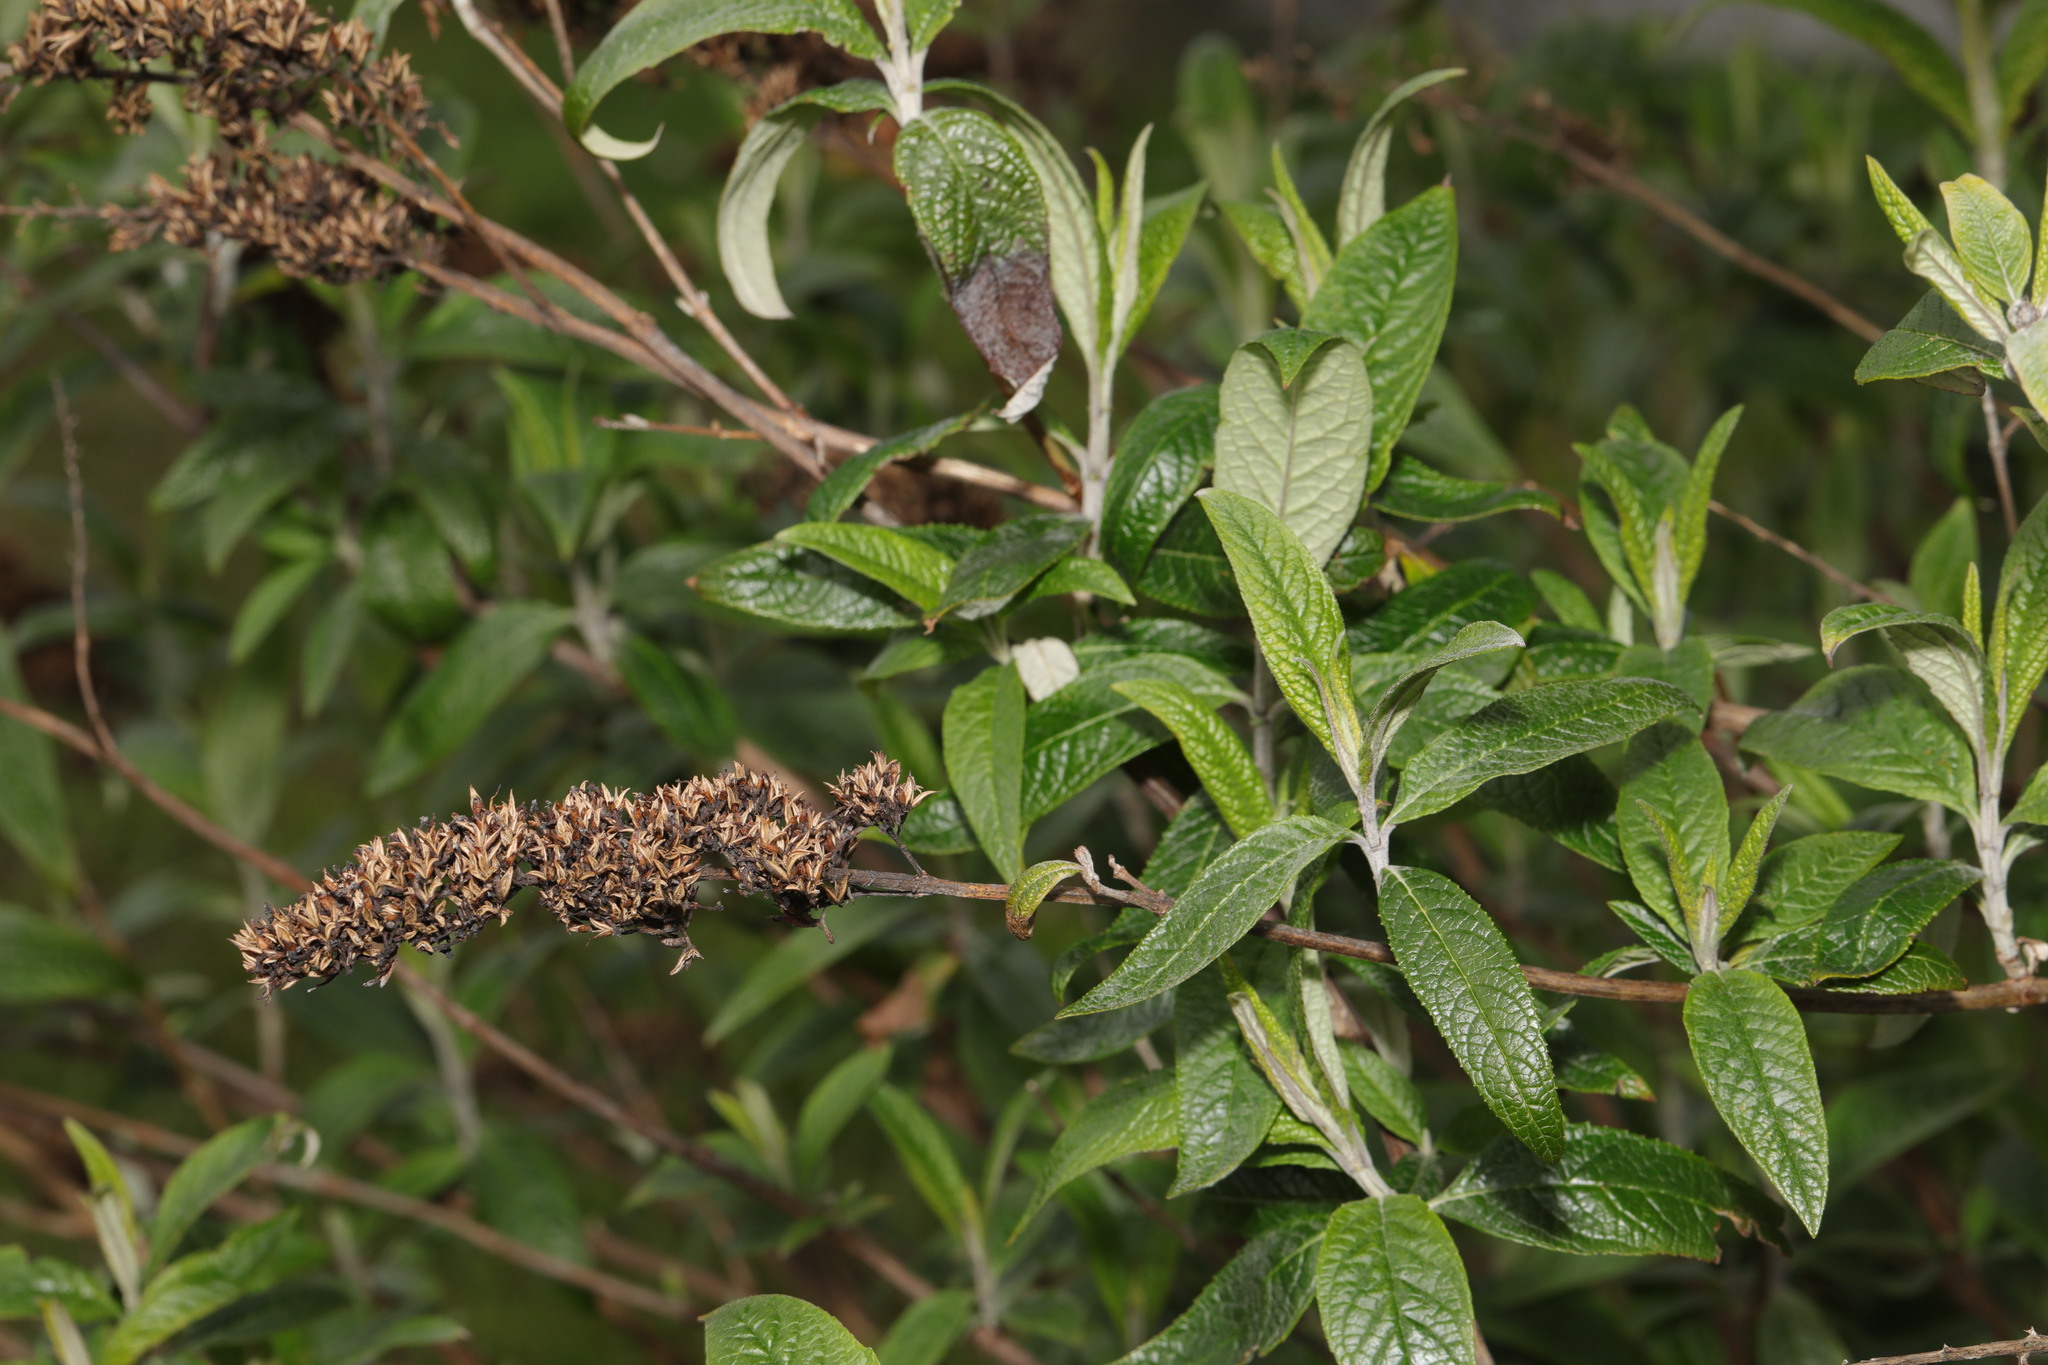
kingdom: Plantae
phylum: Tracheophyta
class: Magnoliopsida
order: Lamiales
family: Scrophulariaceae
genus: Buddleja
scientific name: Buddleja davidii
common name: Butterfly-bush
